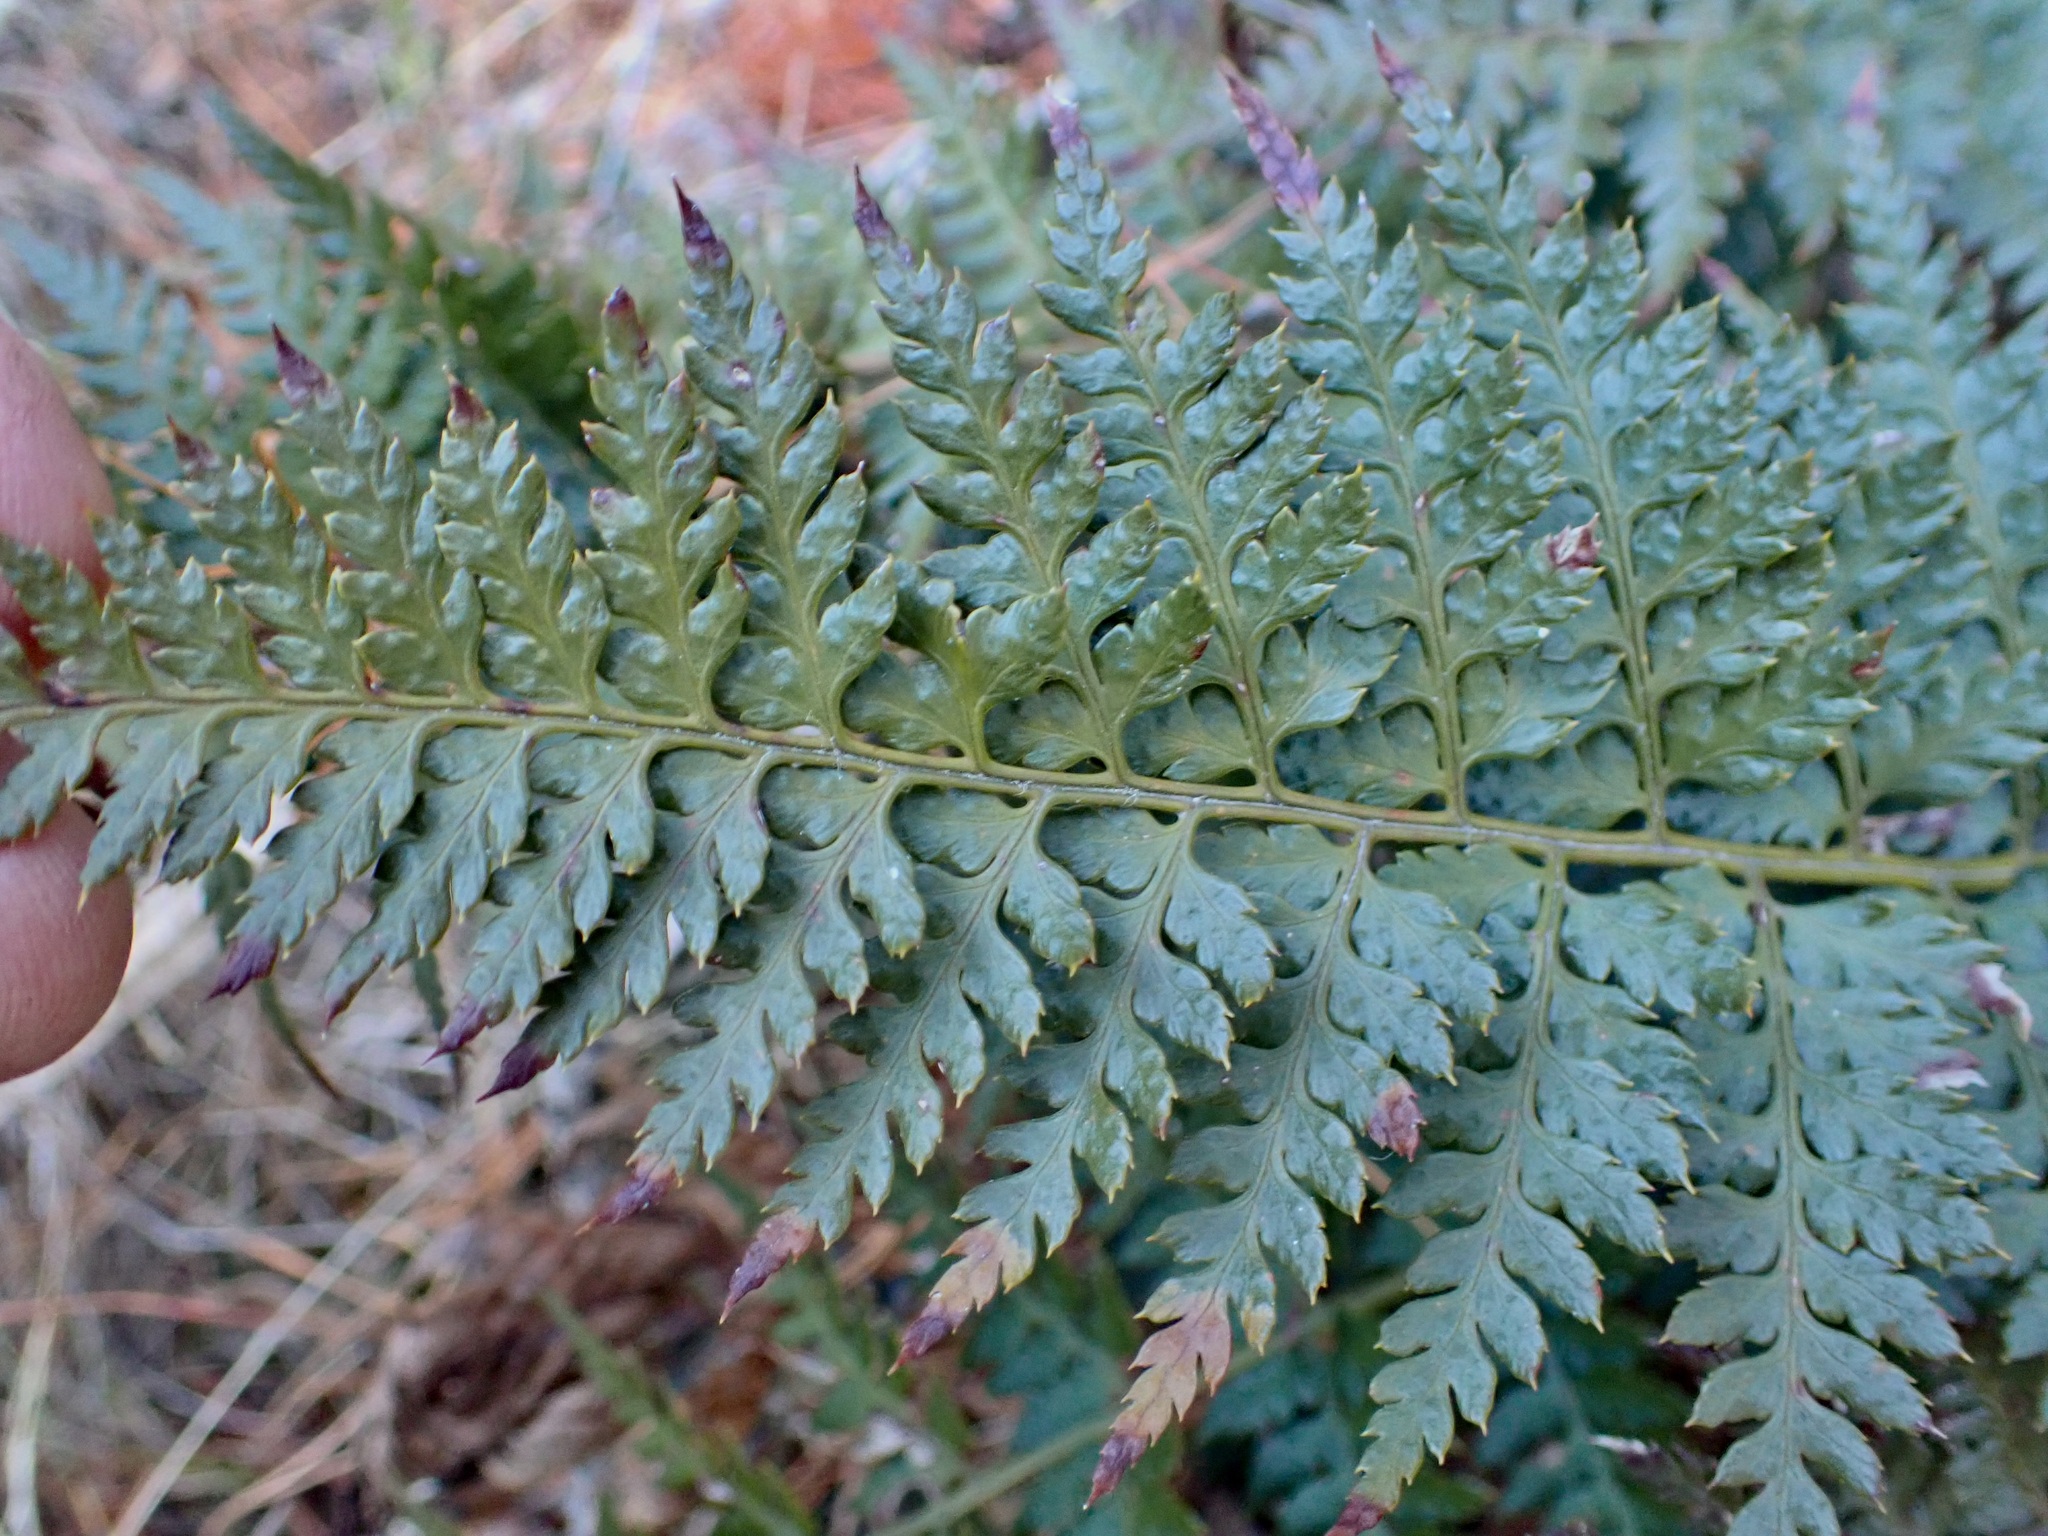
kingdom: Plantae
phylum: Tracheophyta
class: Polypodiopsida
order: Polypodiales
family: Dryopteridaceae
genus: Polystichum
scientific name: Polystichum oculatum
